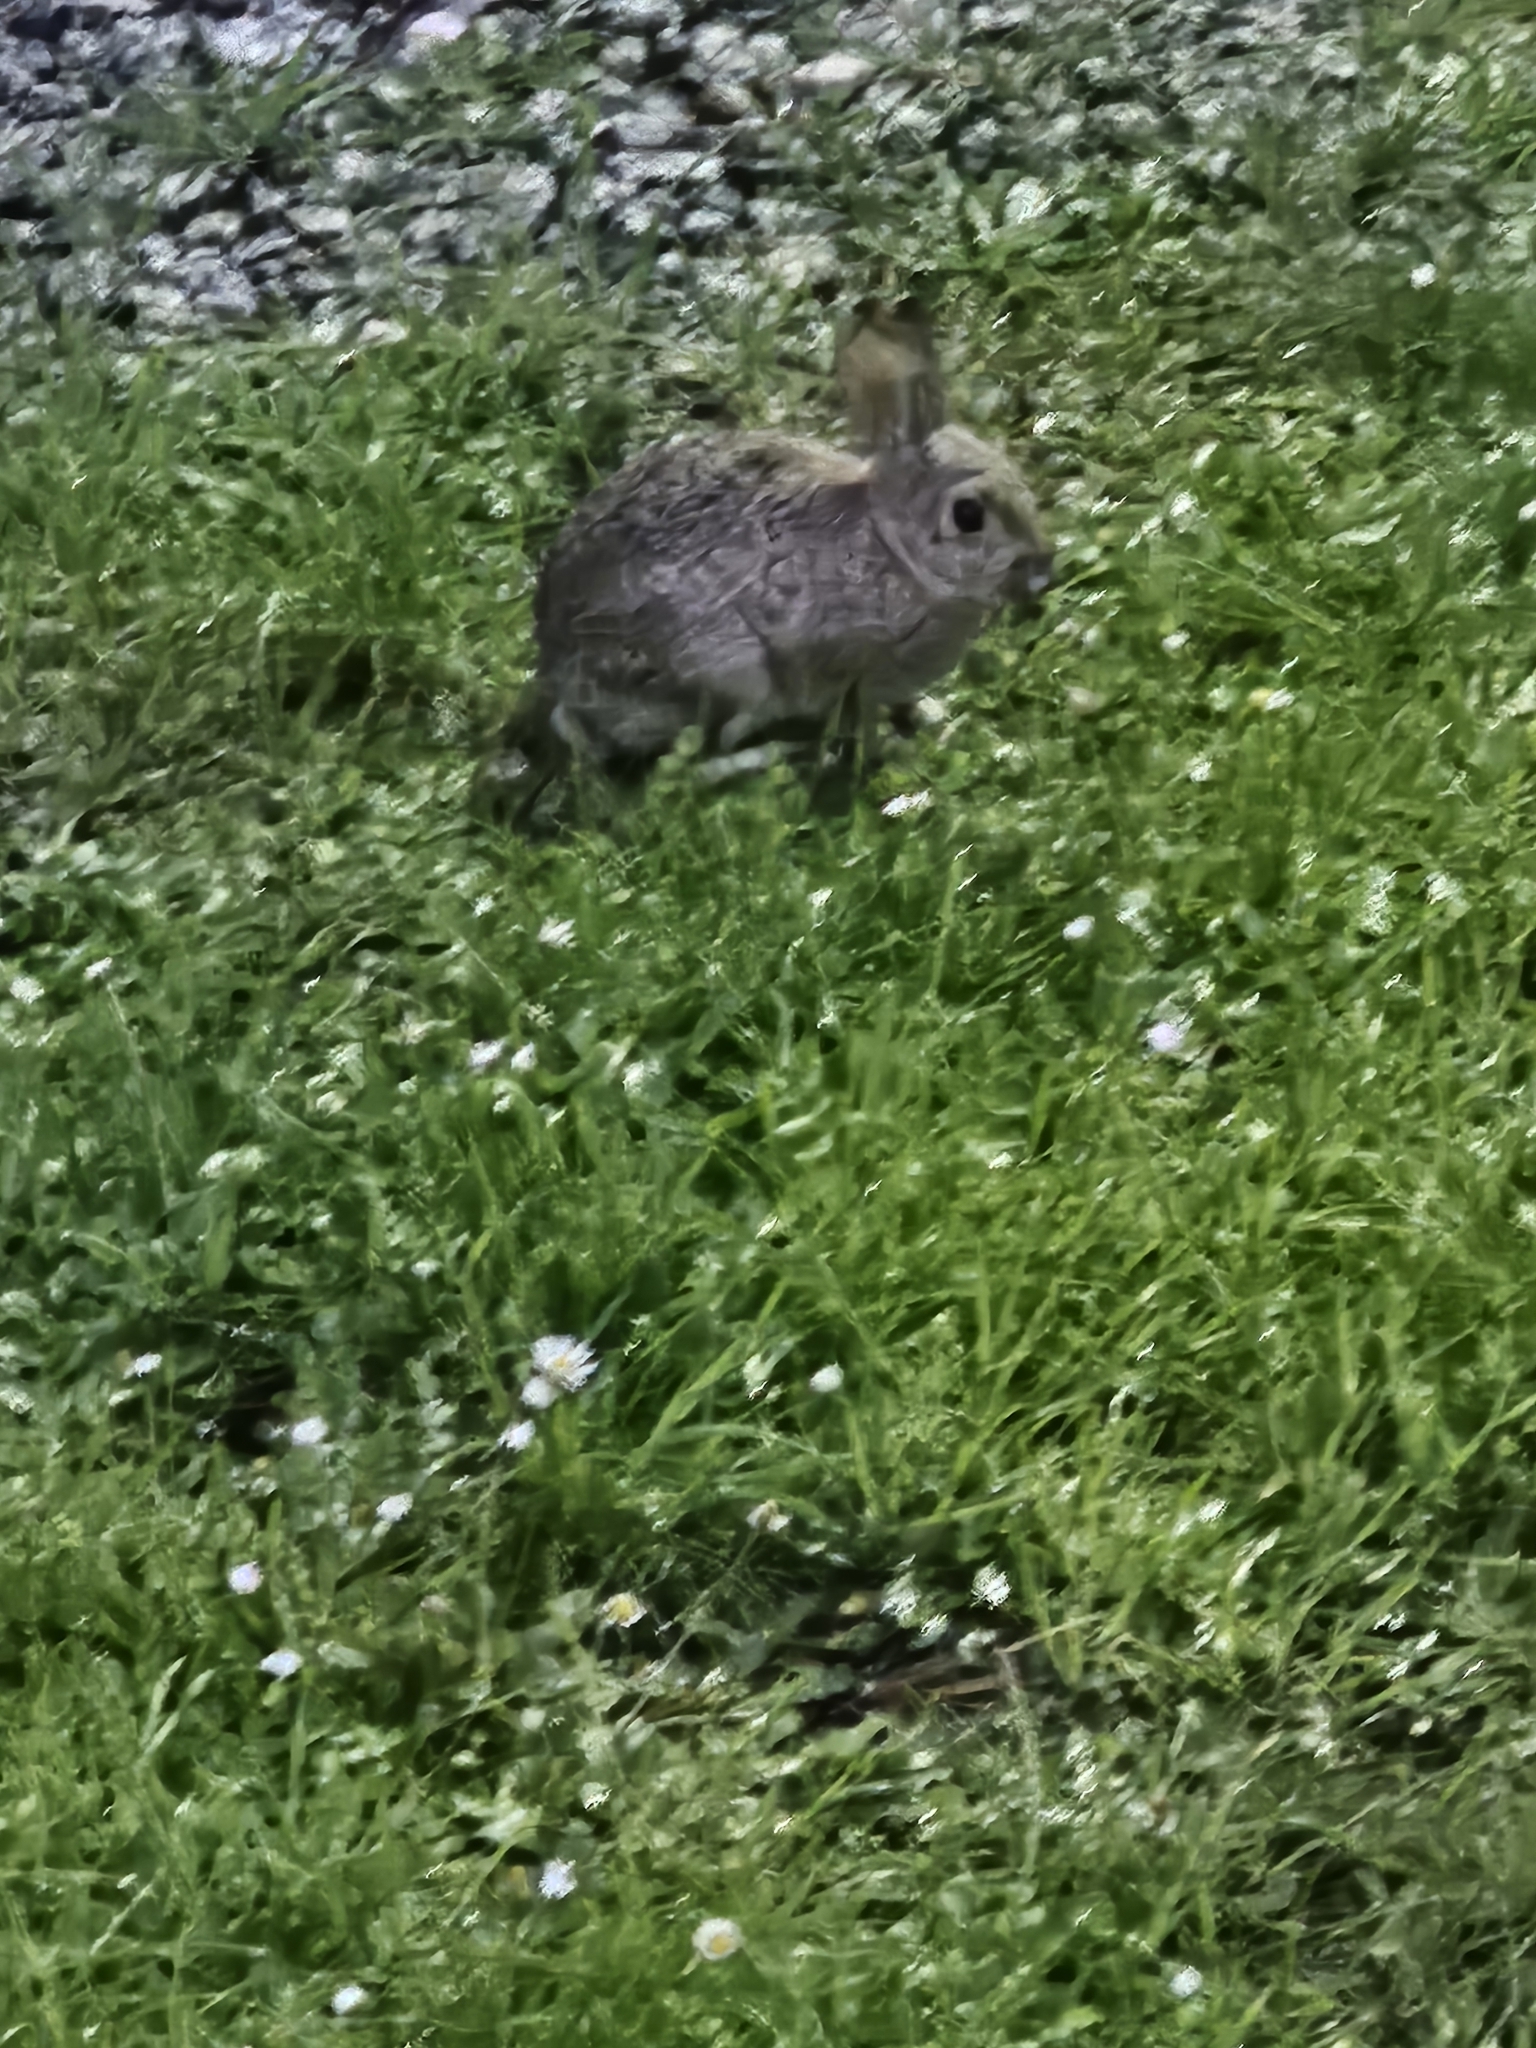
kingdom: Animalia
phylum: Chordata
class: Mammalia
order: Lagomorpha
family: Leporidae
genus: Sylvilagus
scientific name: Sylvilagus bachmani
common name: Brush rabbit
